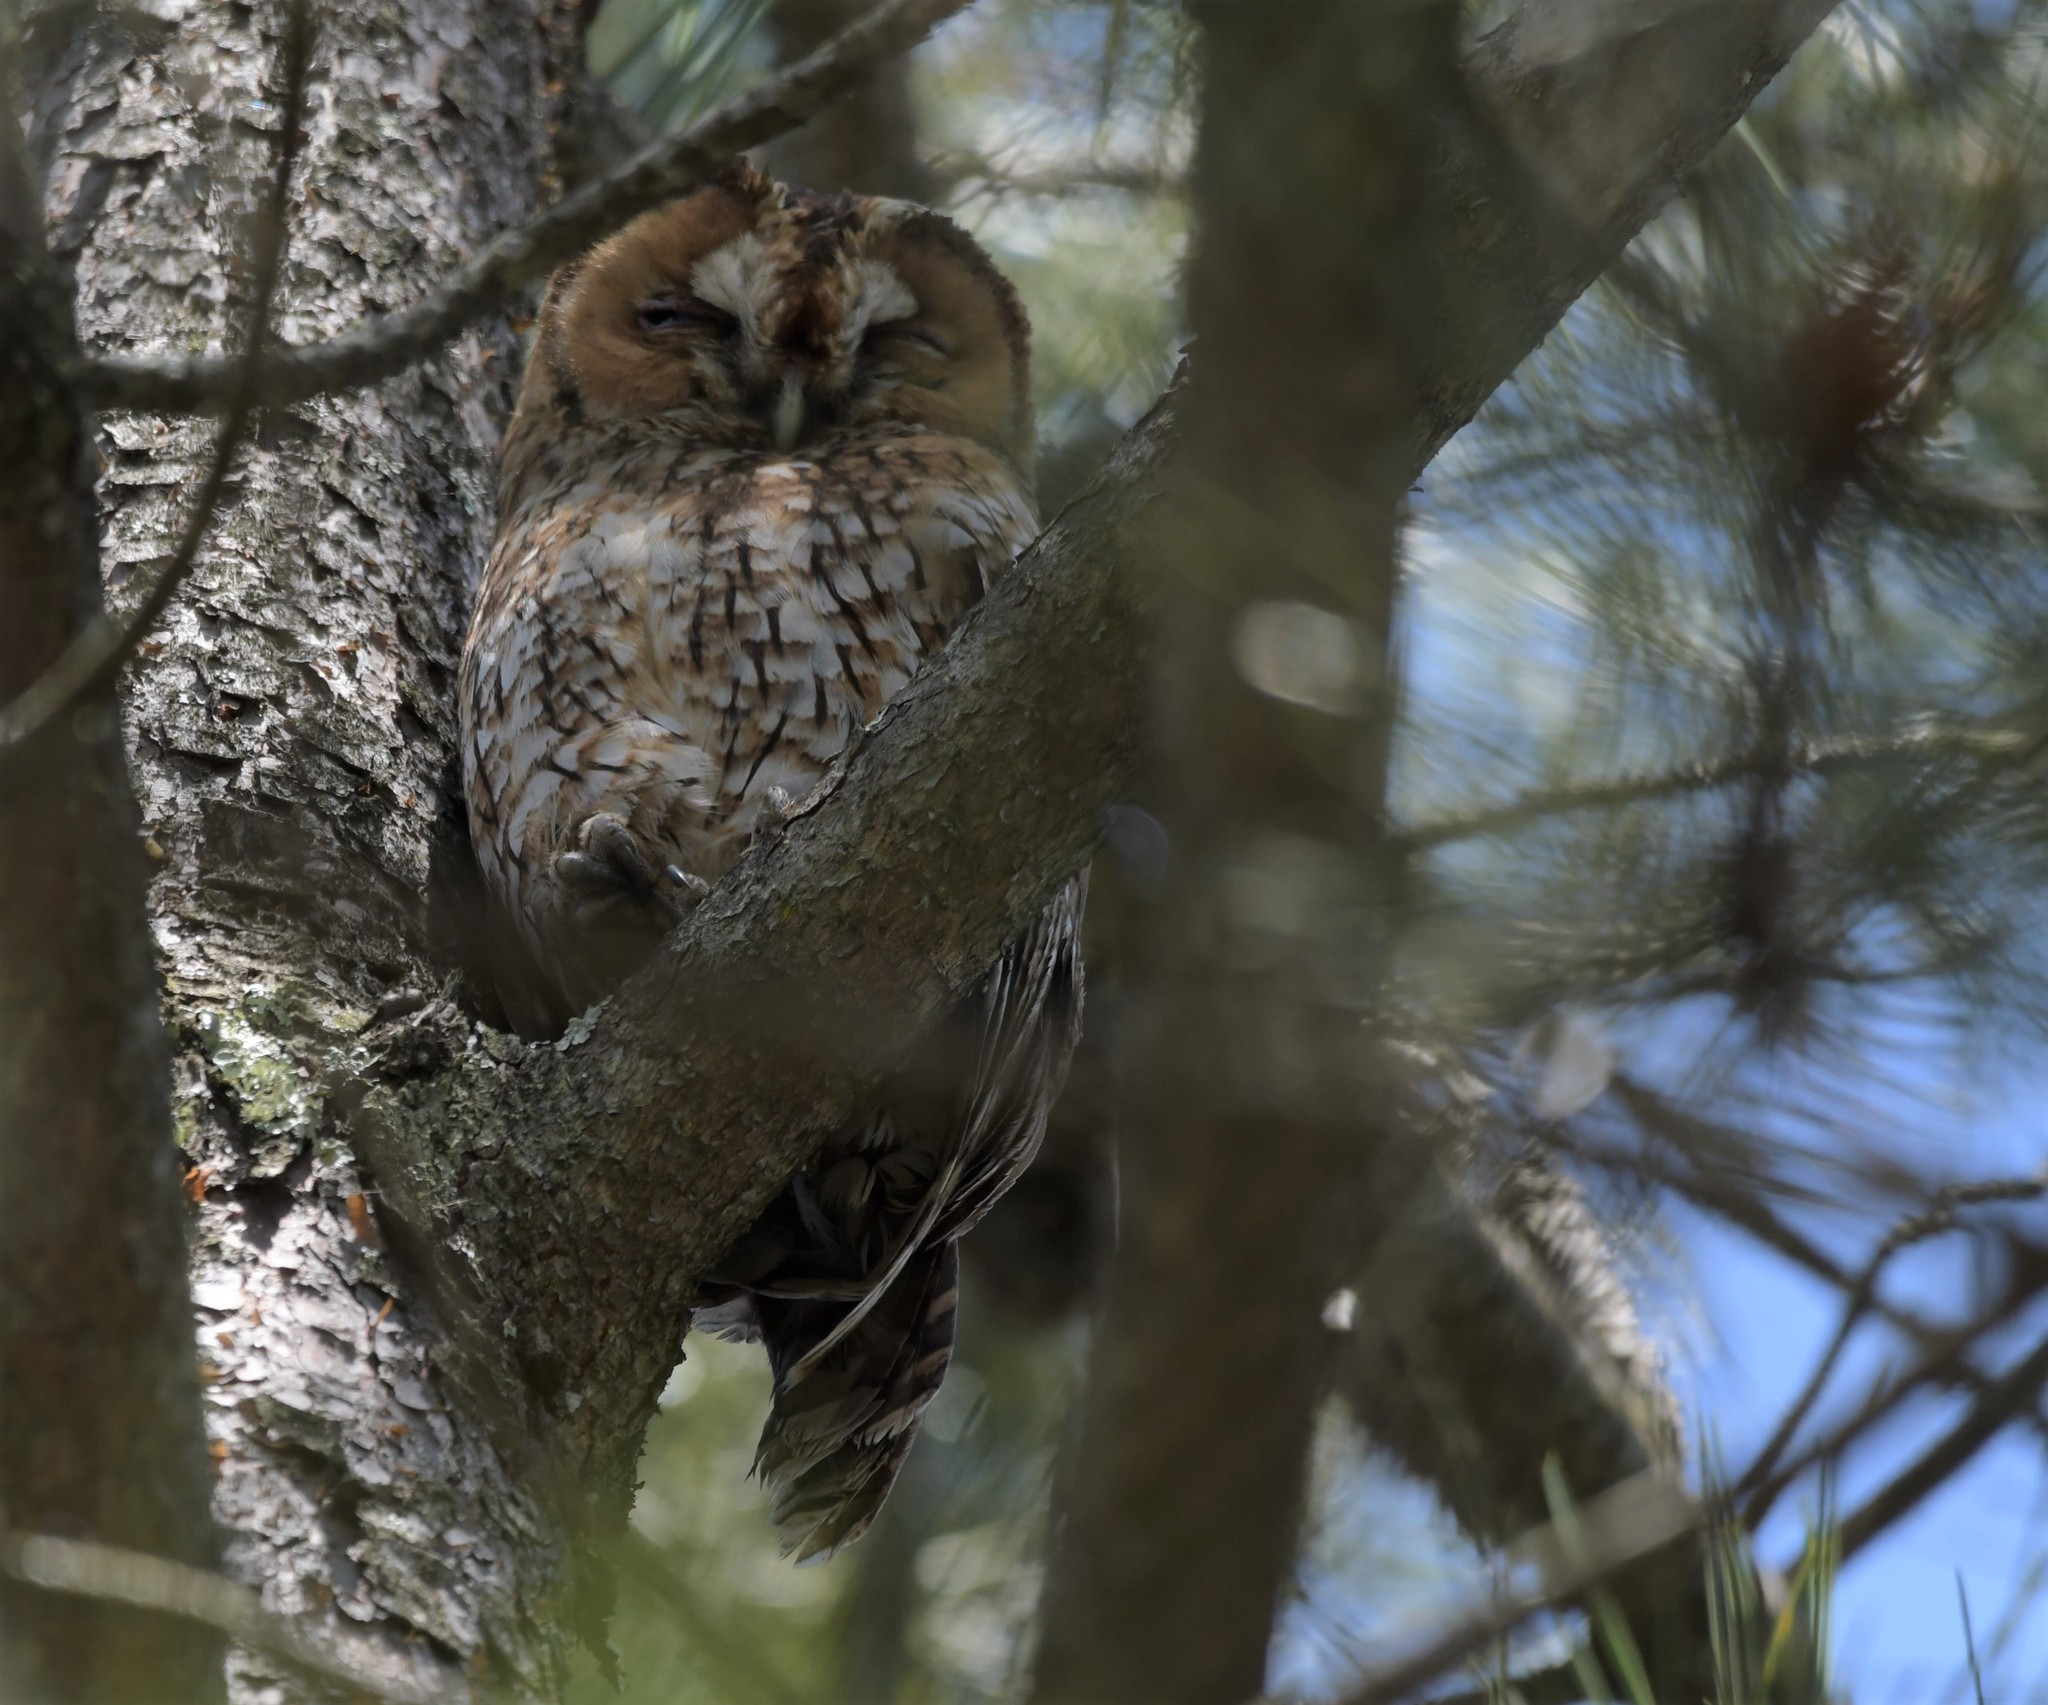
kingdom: Animalia
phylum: Chordata
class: Aves
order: Strigiformes
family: Strigidae
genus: Strix
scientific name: Strix aluco
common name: Tawny owl
